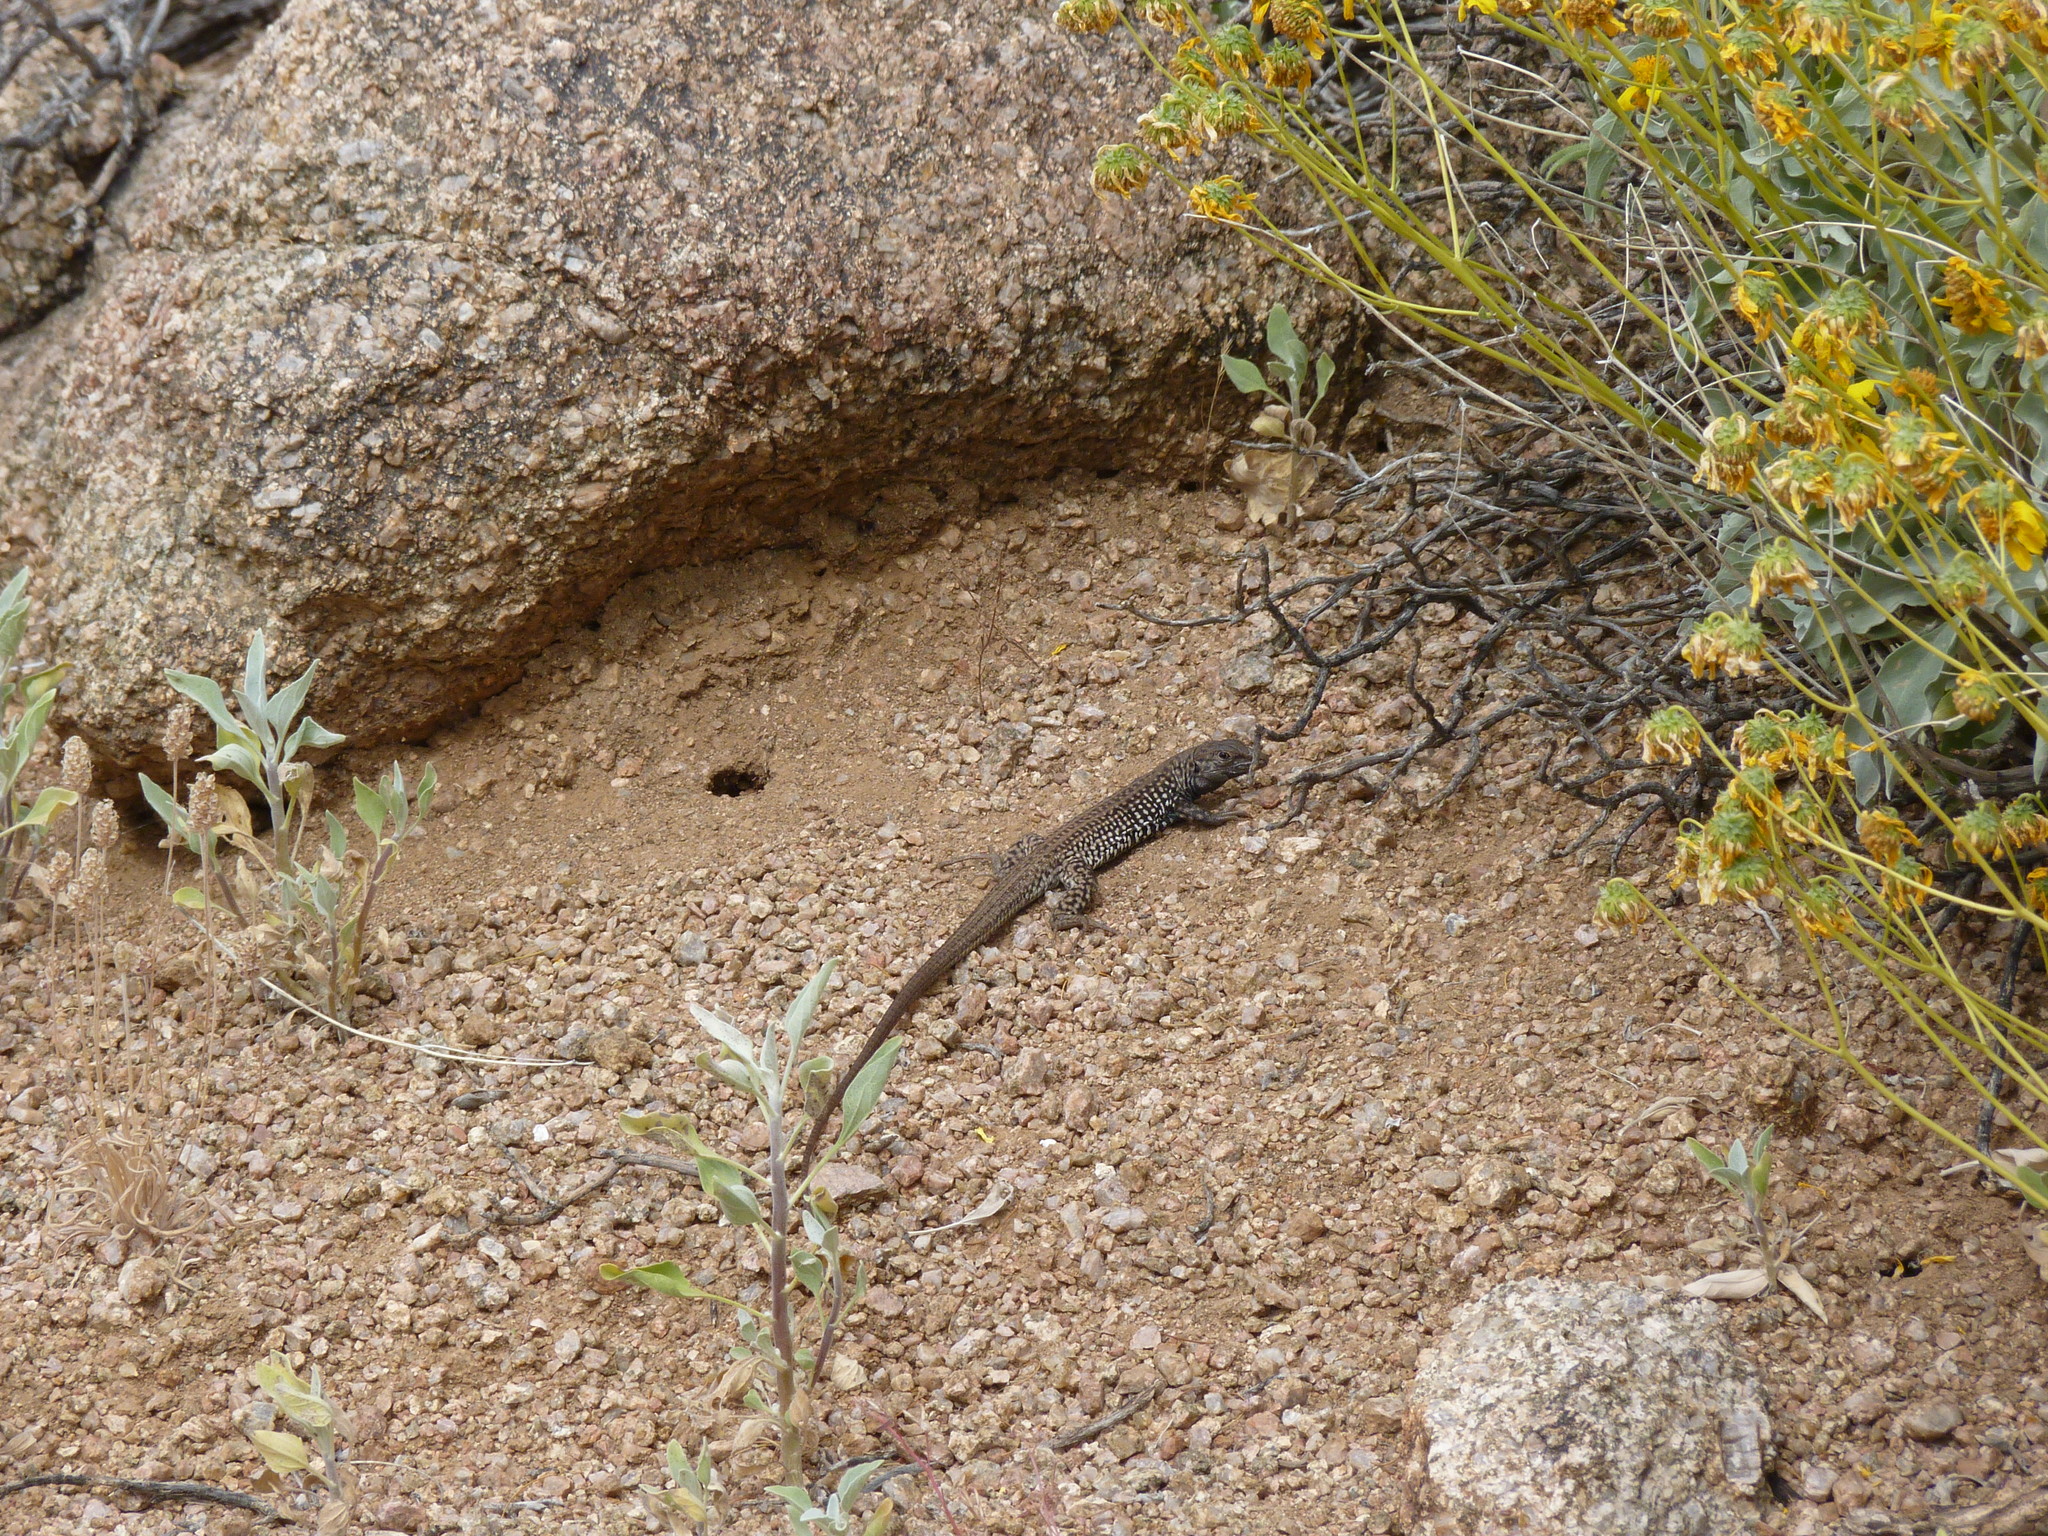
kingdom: Animalia
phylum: Chordata
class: Squamata
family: Teiidae
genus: Aspidoscelis
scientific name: Aspidoscelis tigris
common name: Tiger whiptail
